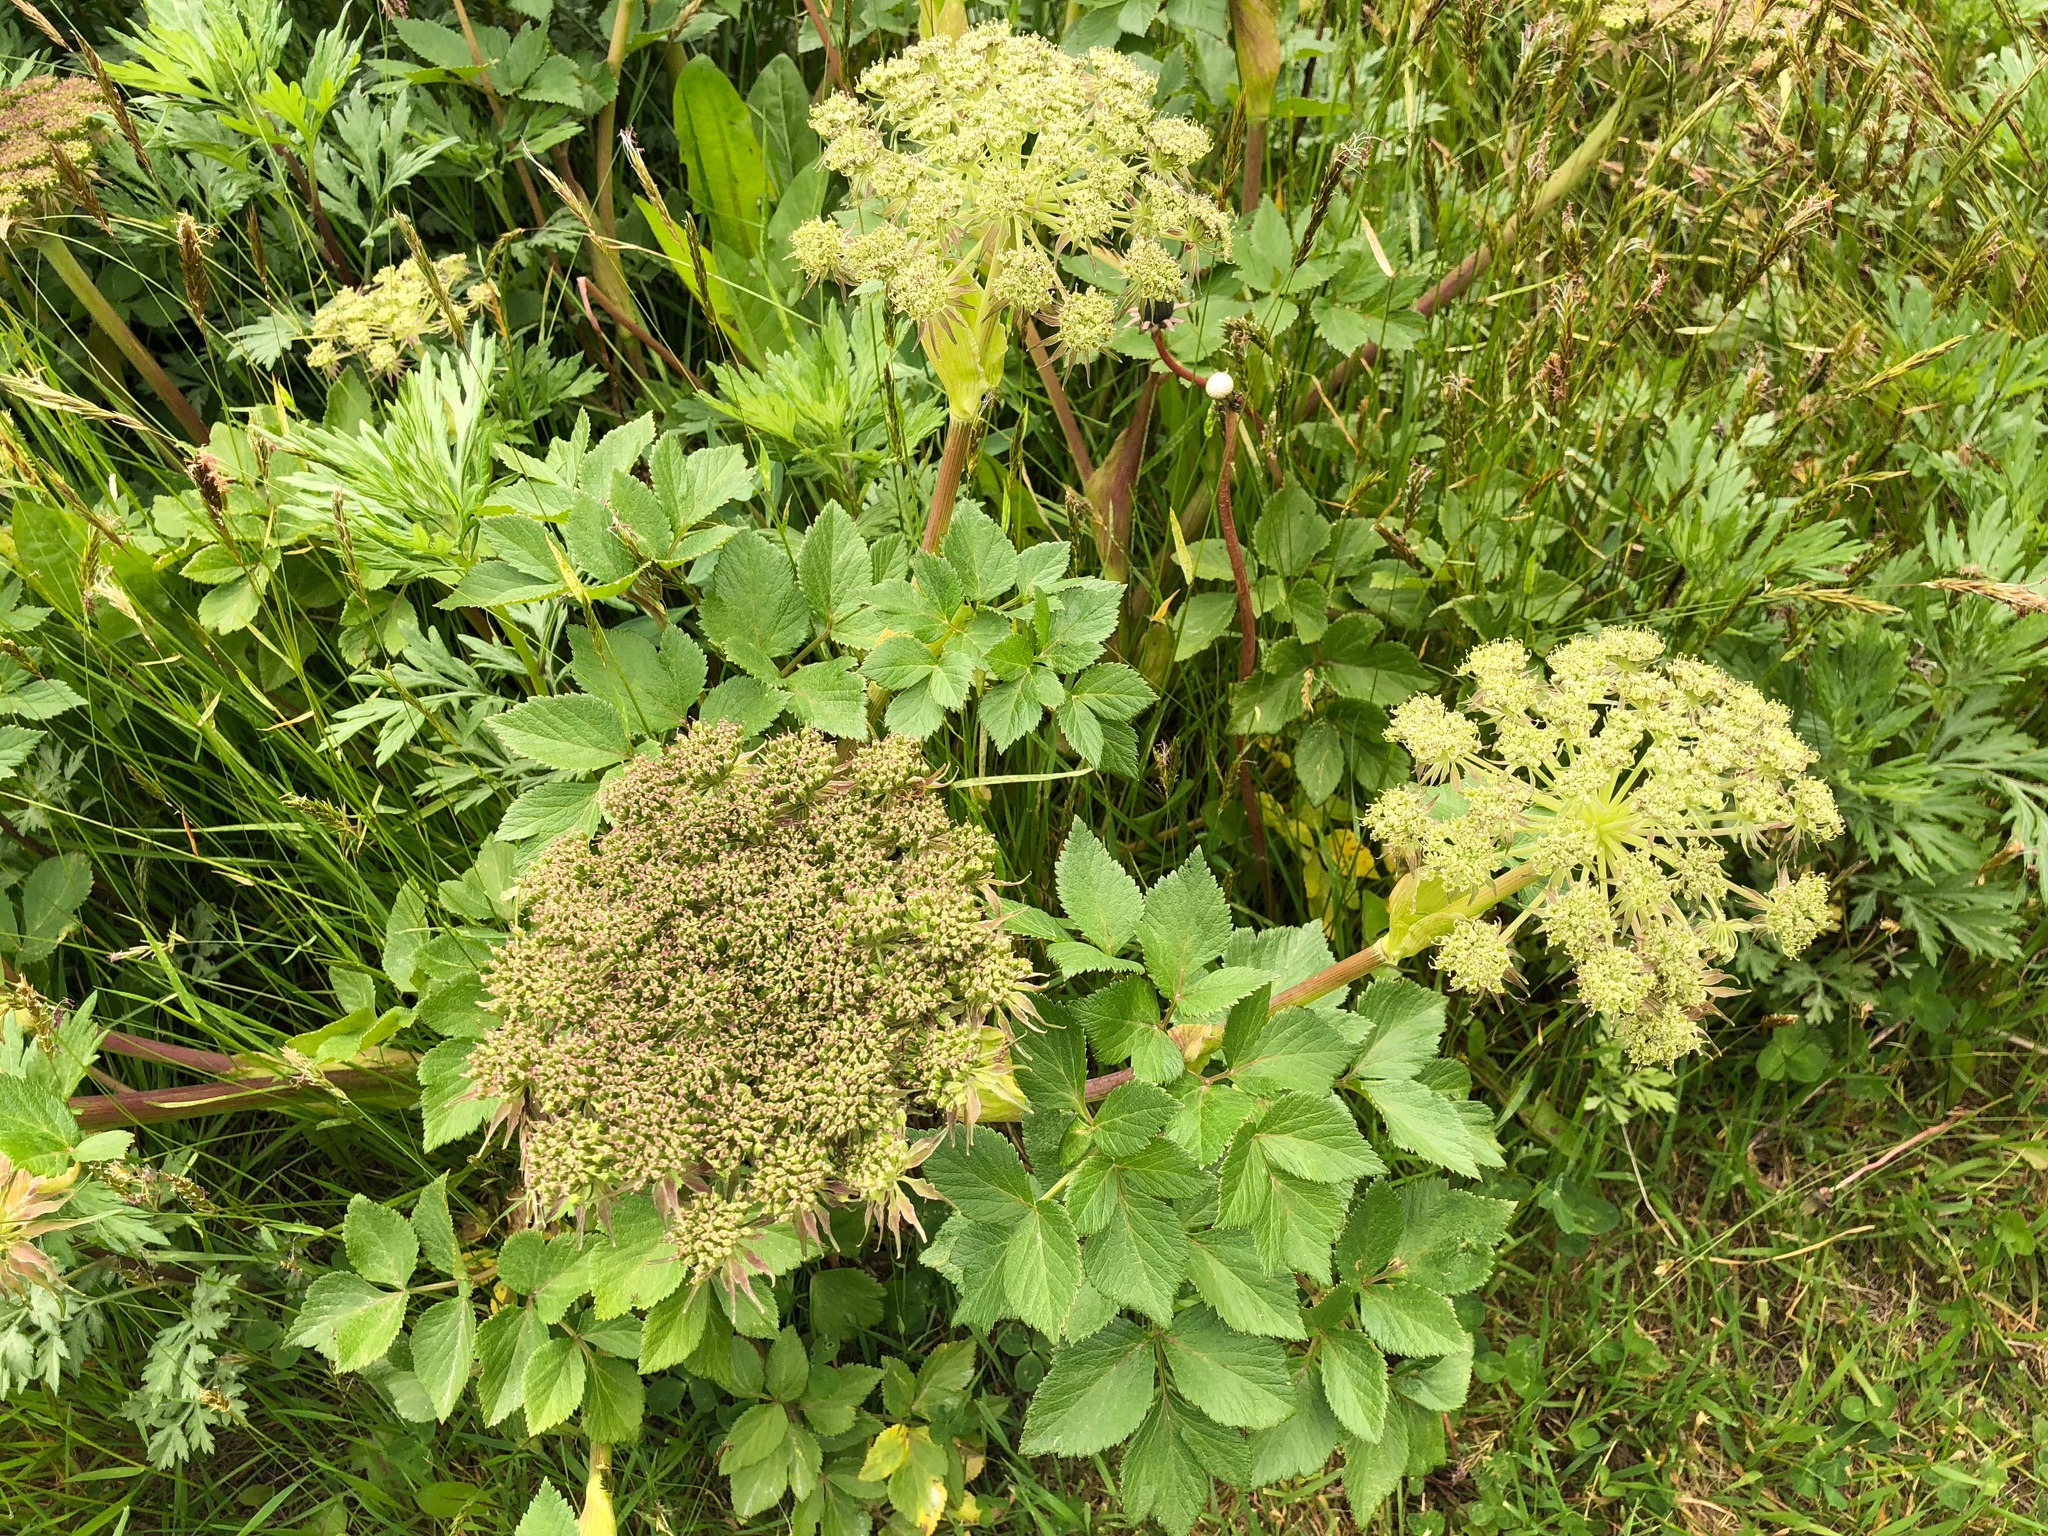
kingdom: Plantae
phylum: Tracheophyta
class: Magnoliopsida
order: Apiales
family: Apiaceae
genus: Angelica
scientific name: Angelica lucida
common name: Seabeach angelica
